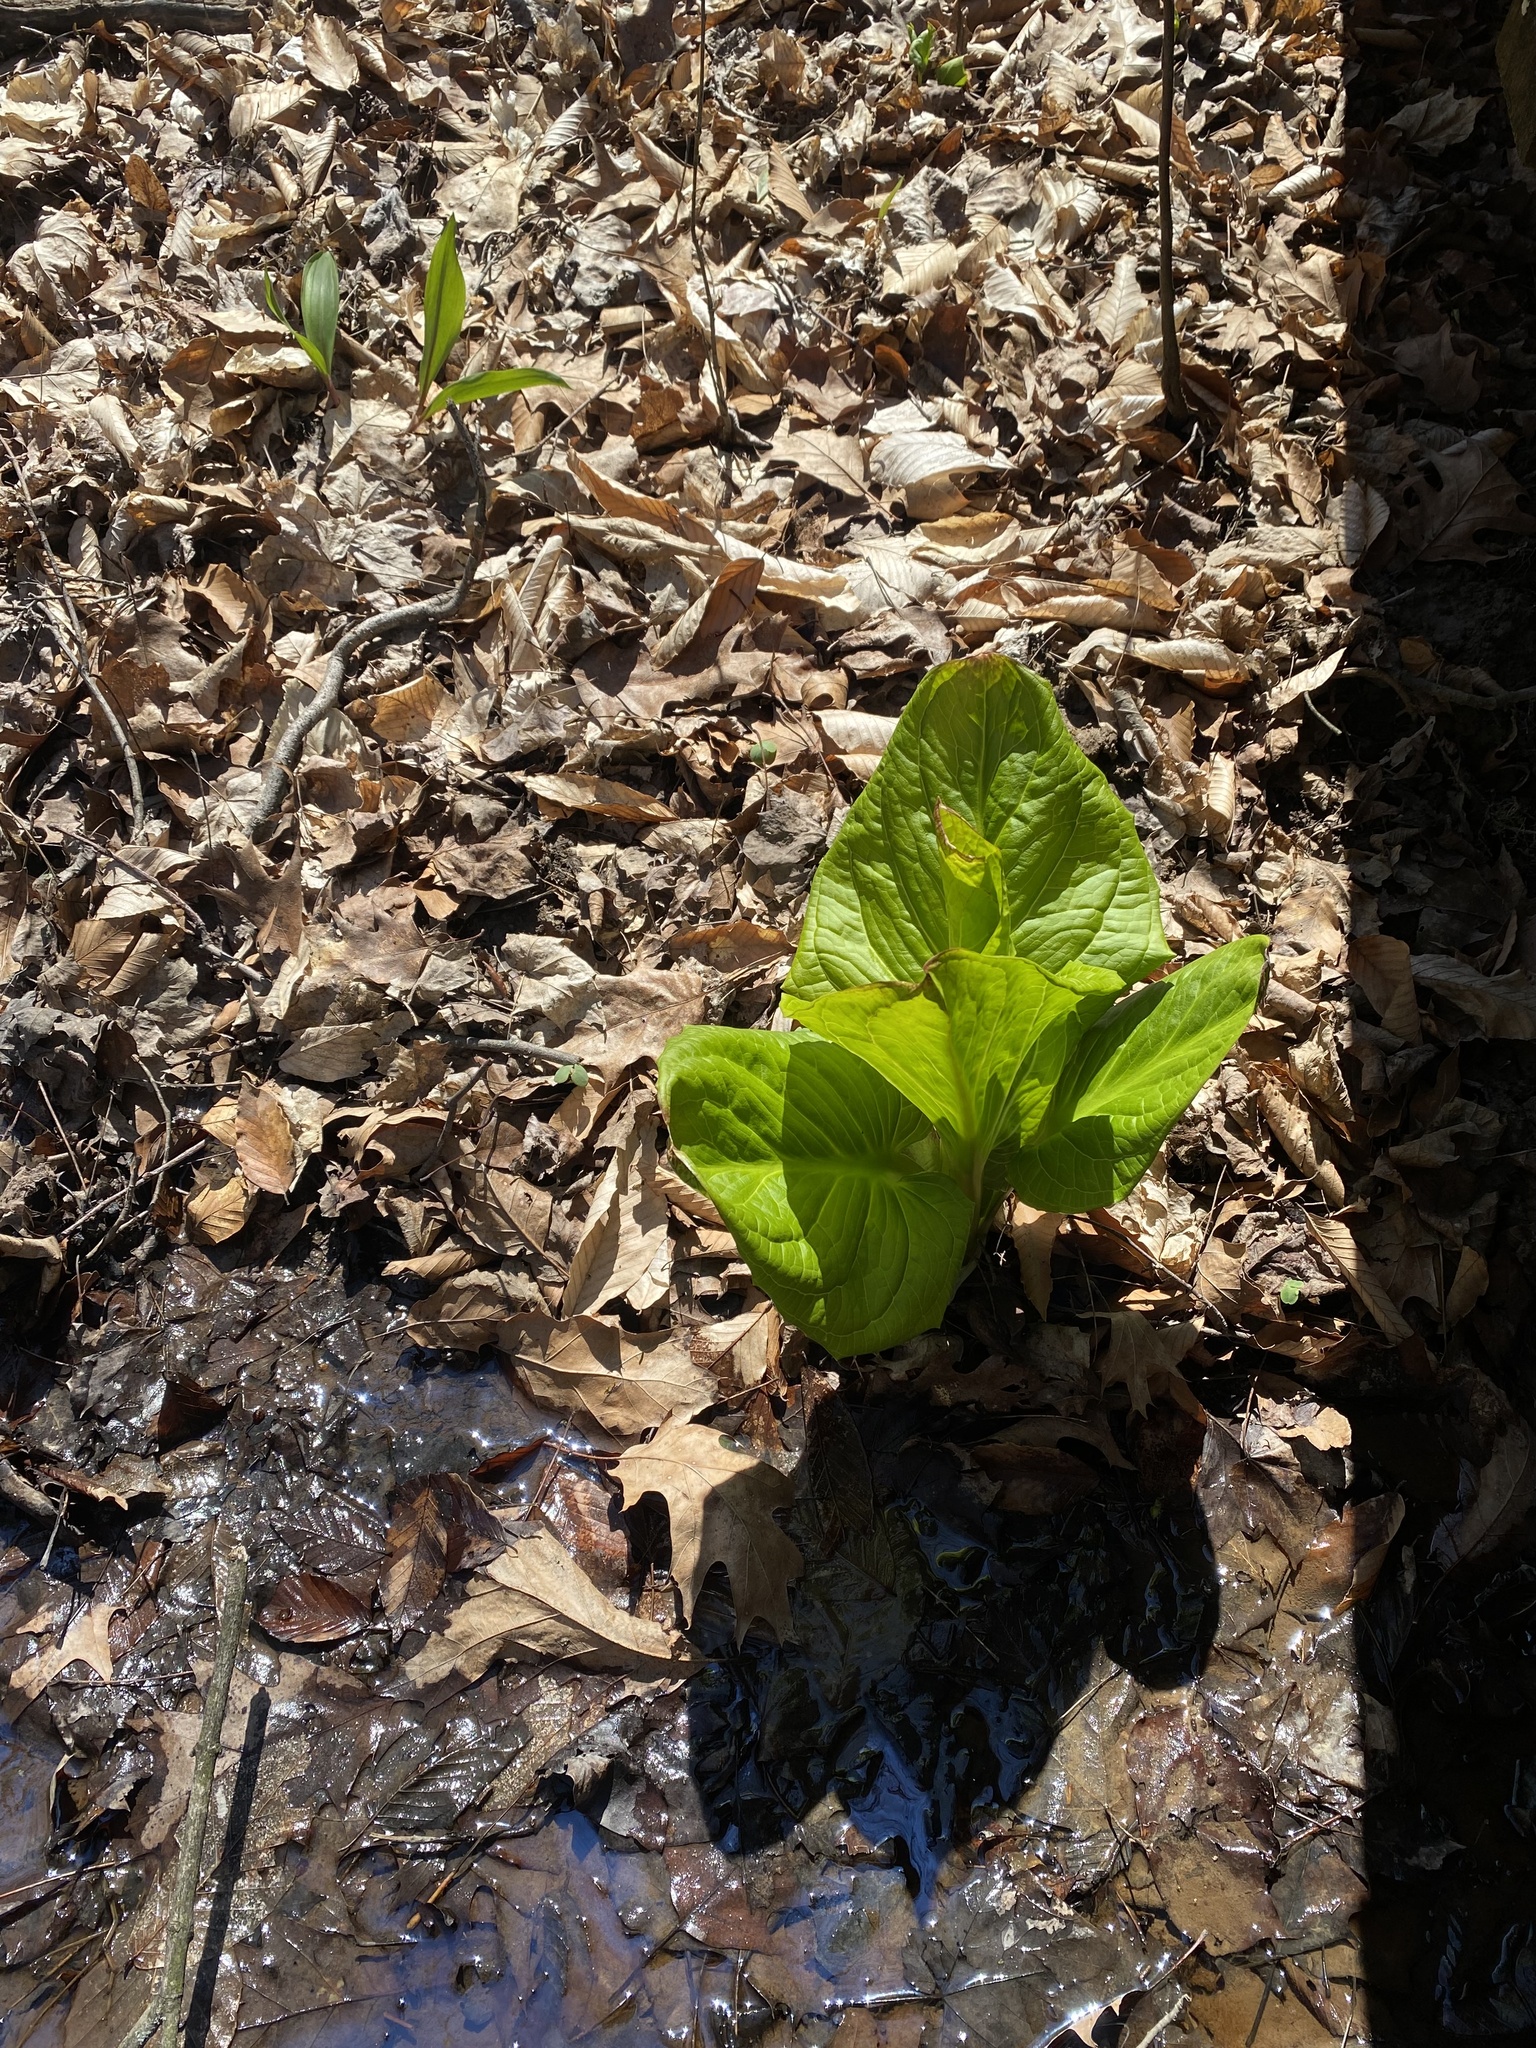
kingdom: Plantae
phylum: Tracheophyta
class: Liliopsida
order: Alismatales
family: Araceae
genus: Symplocarpus
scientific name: Symplocarpus foetidus
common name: Eastern skunk cabbage
